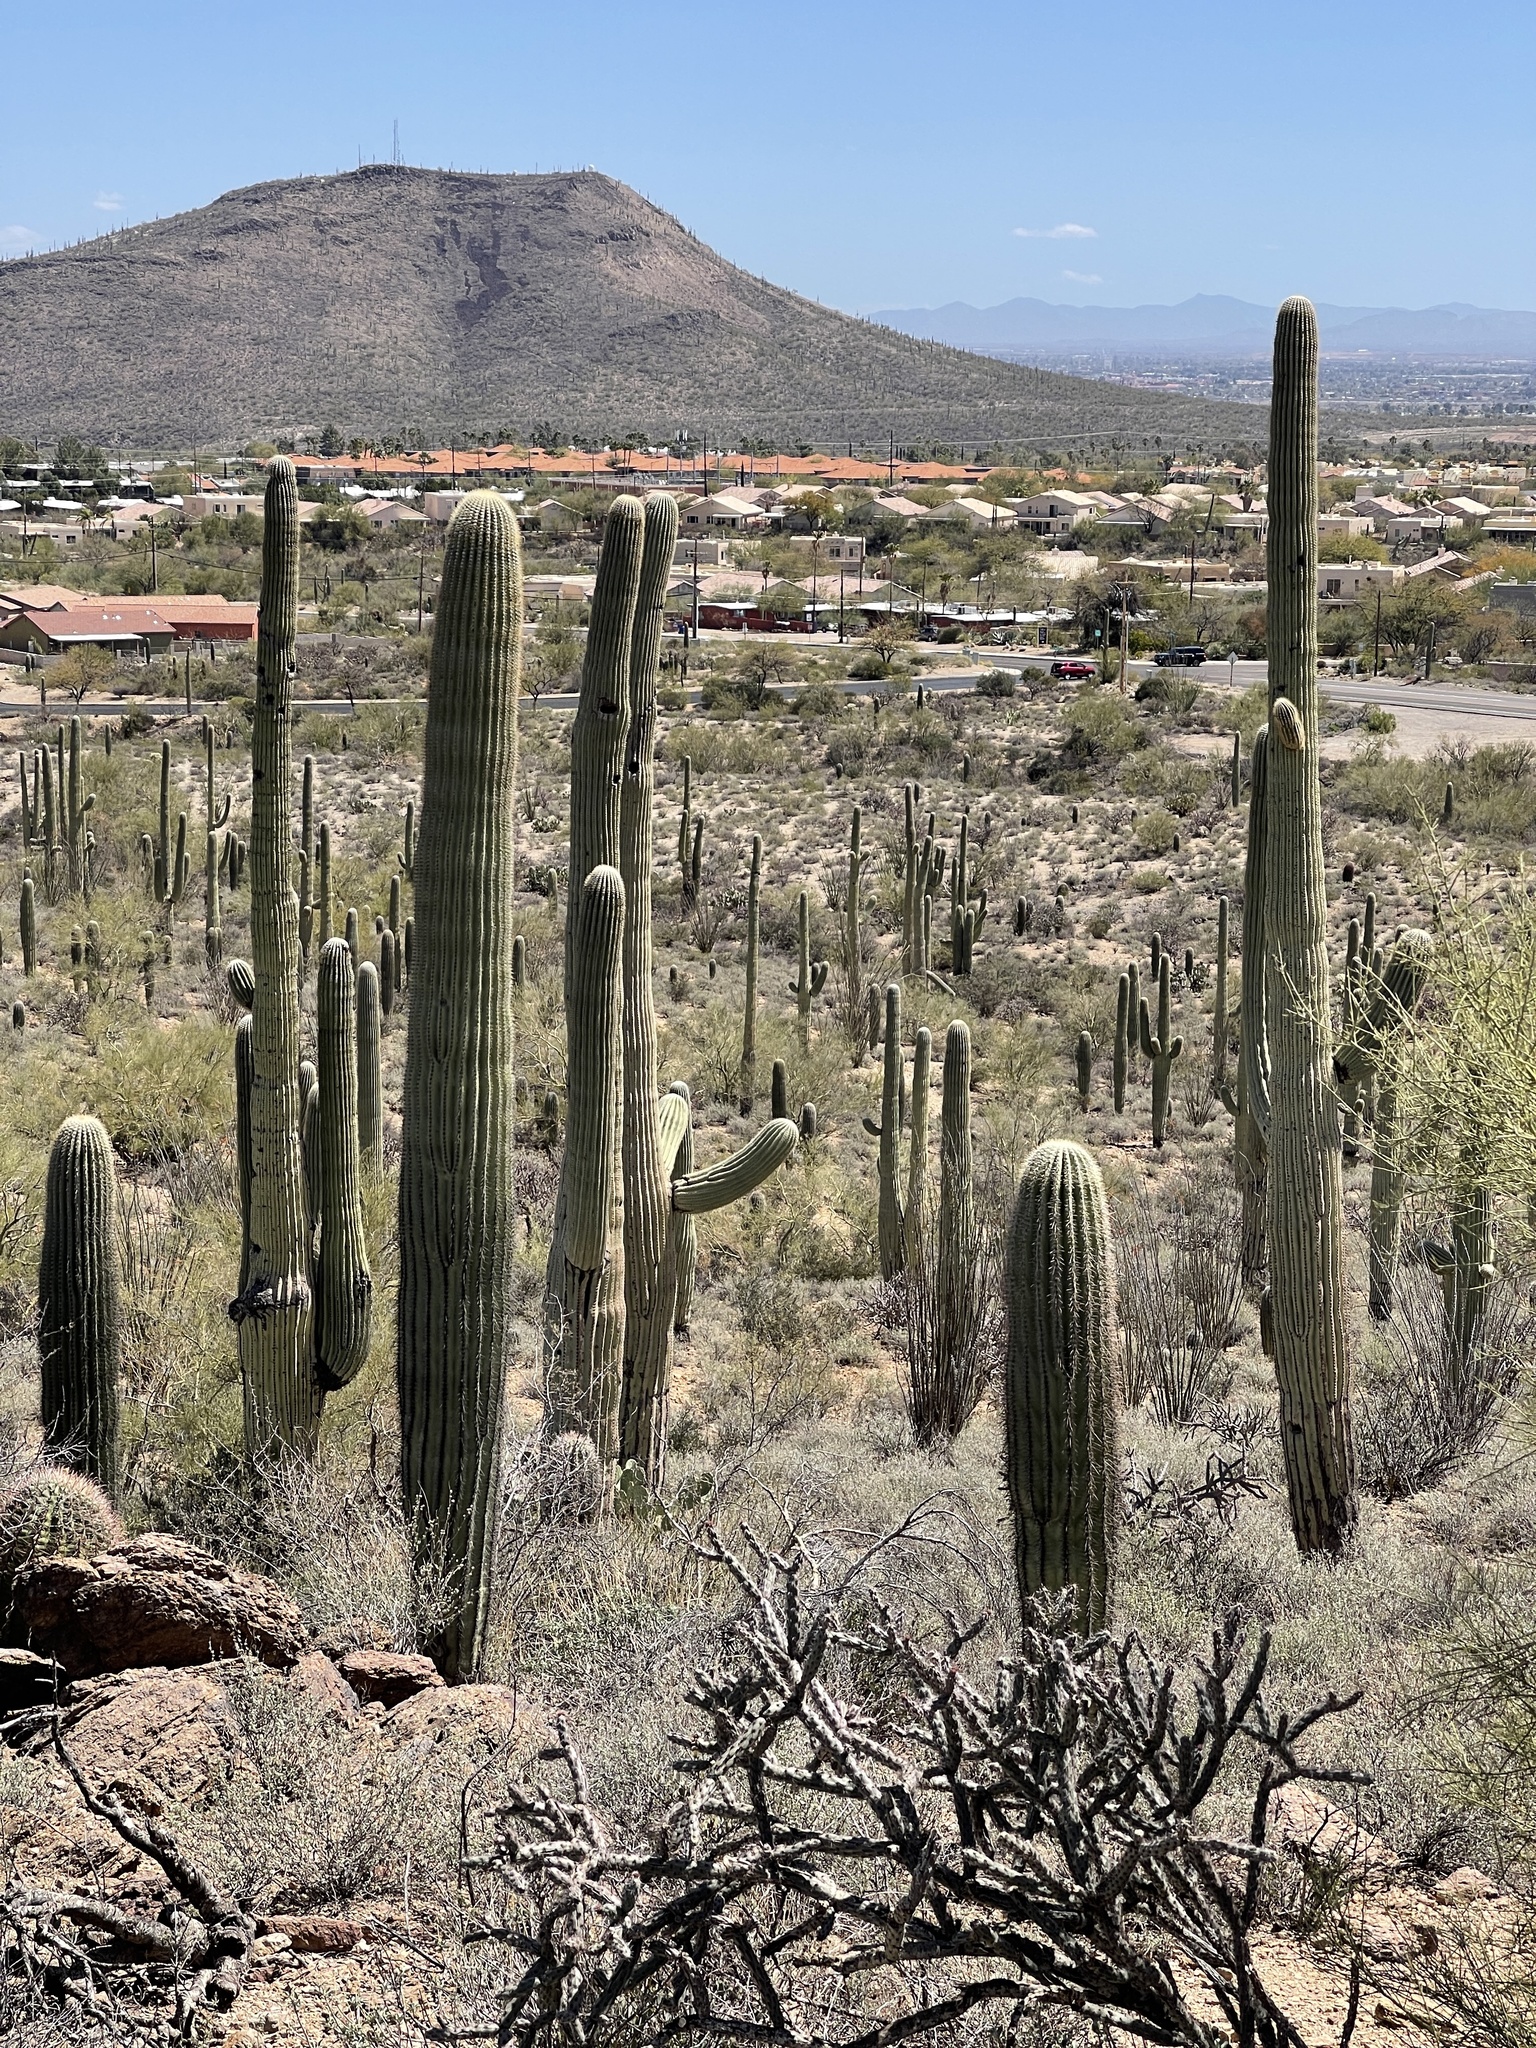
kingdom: Plantae
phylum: Tracheophyta
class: Magnoliopsida
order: Caryophyllales
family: Cactaceae
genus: Carnegiea
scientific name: Carnegiea gigantea
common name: Saguaro
